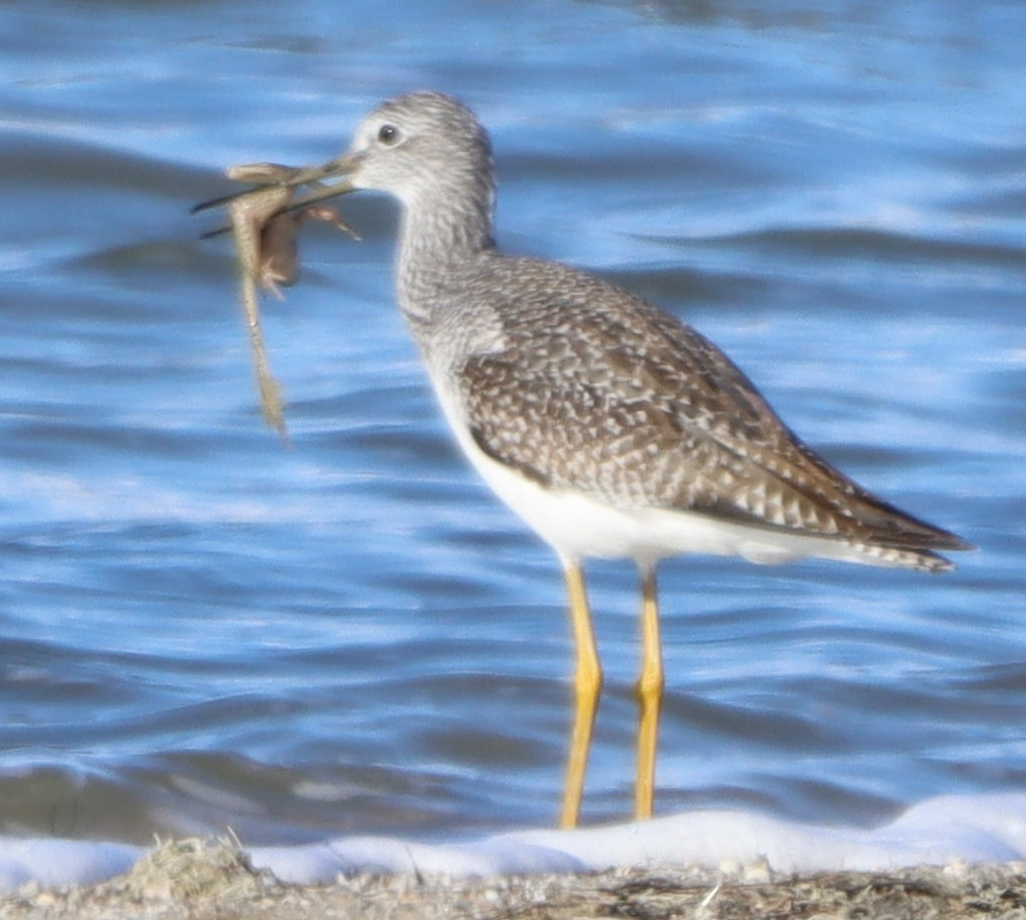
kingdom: Animalia
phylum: Chordata
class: Aves
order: Charadriiformes
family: Scolopacidae
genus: Tringa
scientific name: Tringa melanoleuca
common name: Greater yellowlegs
